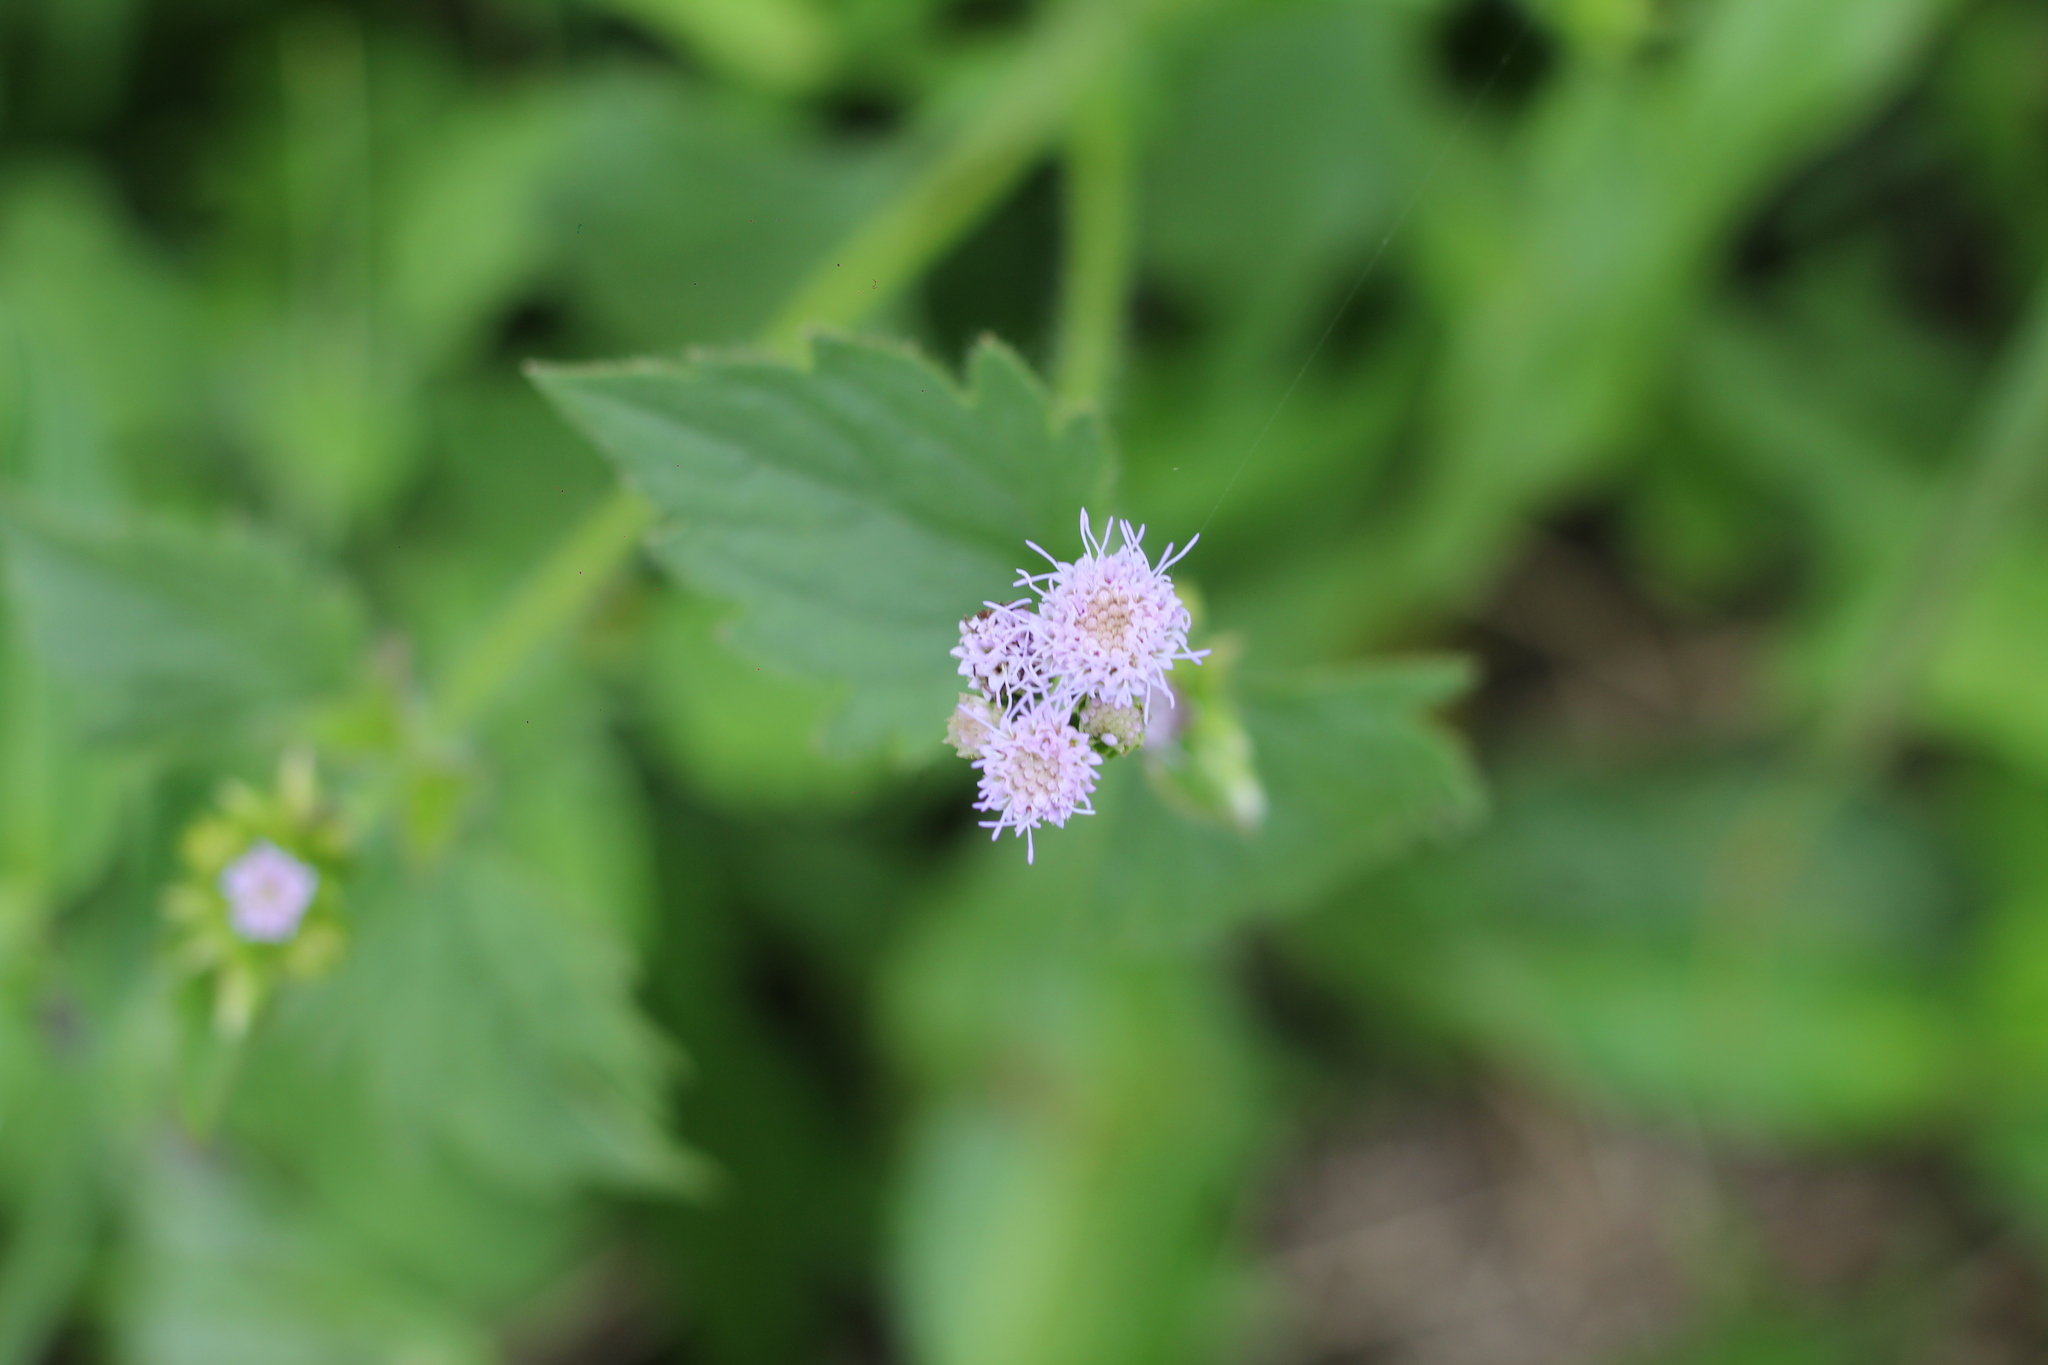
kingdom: Plantae
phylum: Tracheophyta
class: Magnoliopsida
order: Asterales
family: Asteraceae
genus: Praxelis
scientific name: Praxelis clematidea
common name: Praxelis
